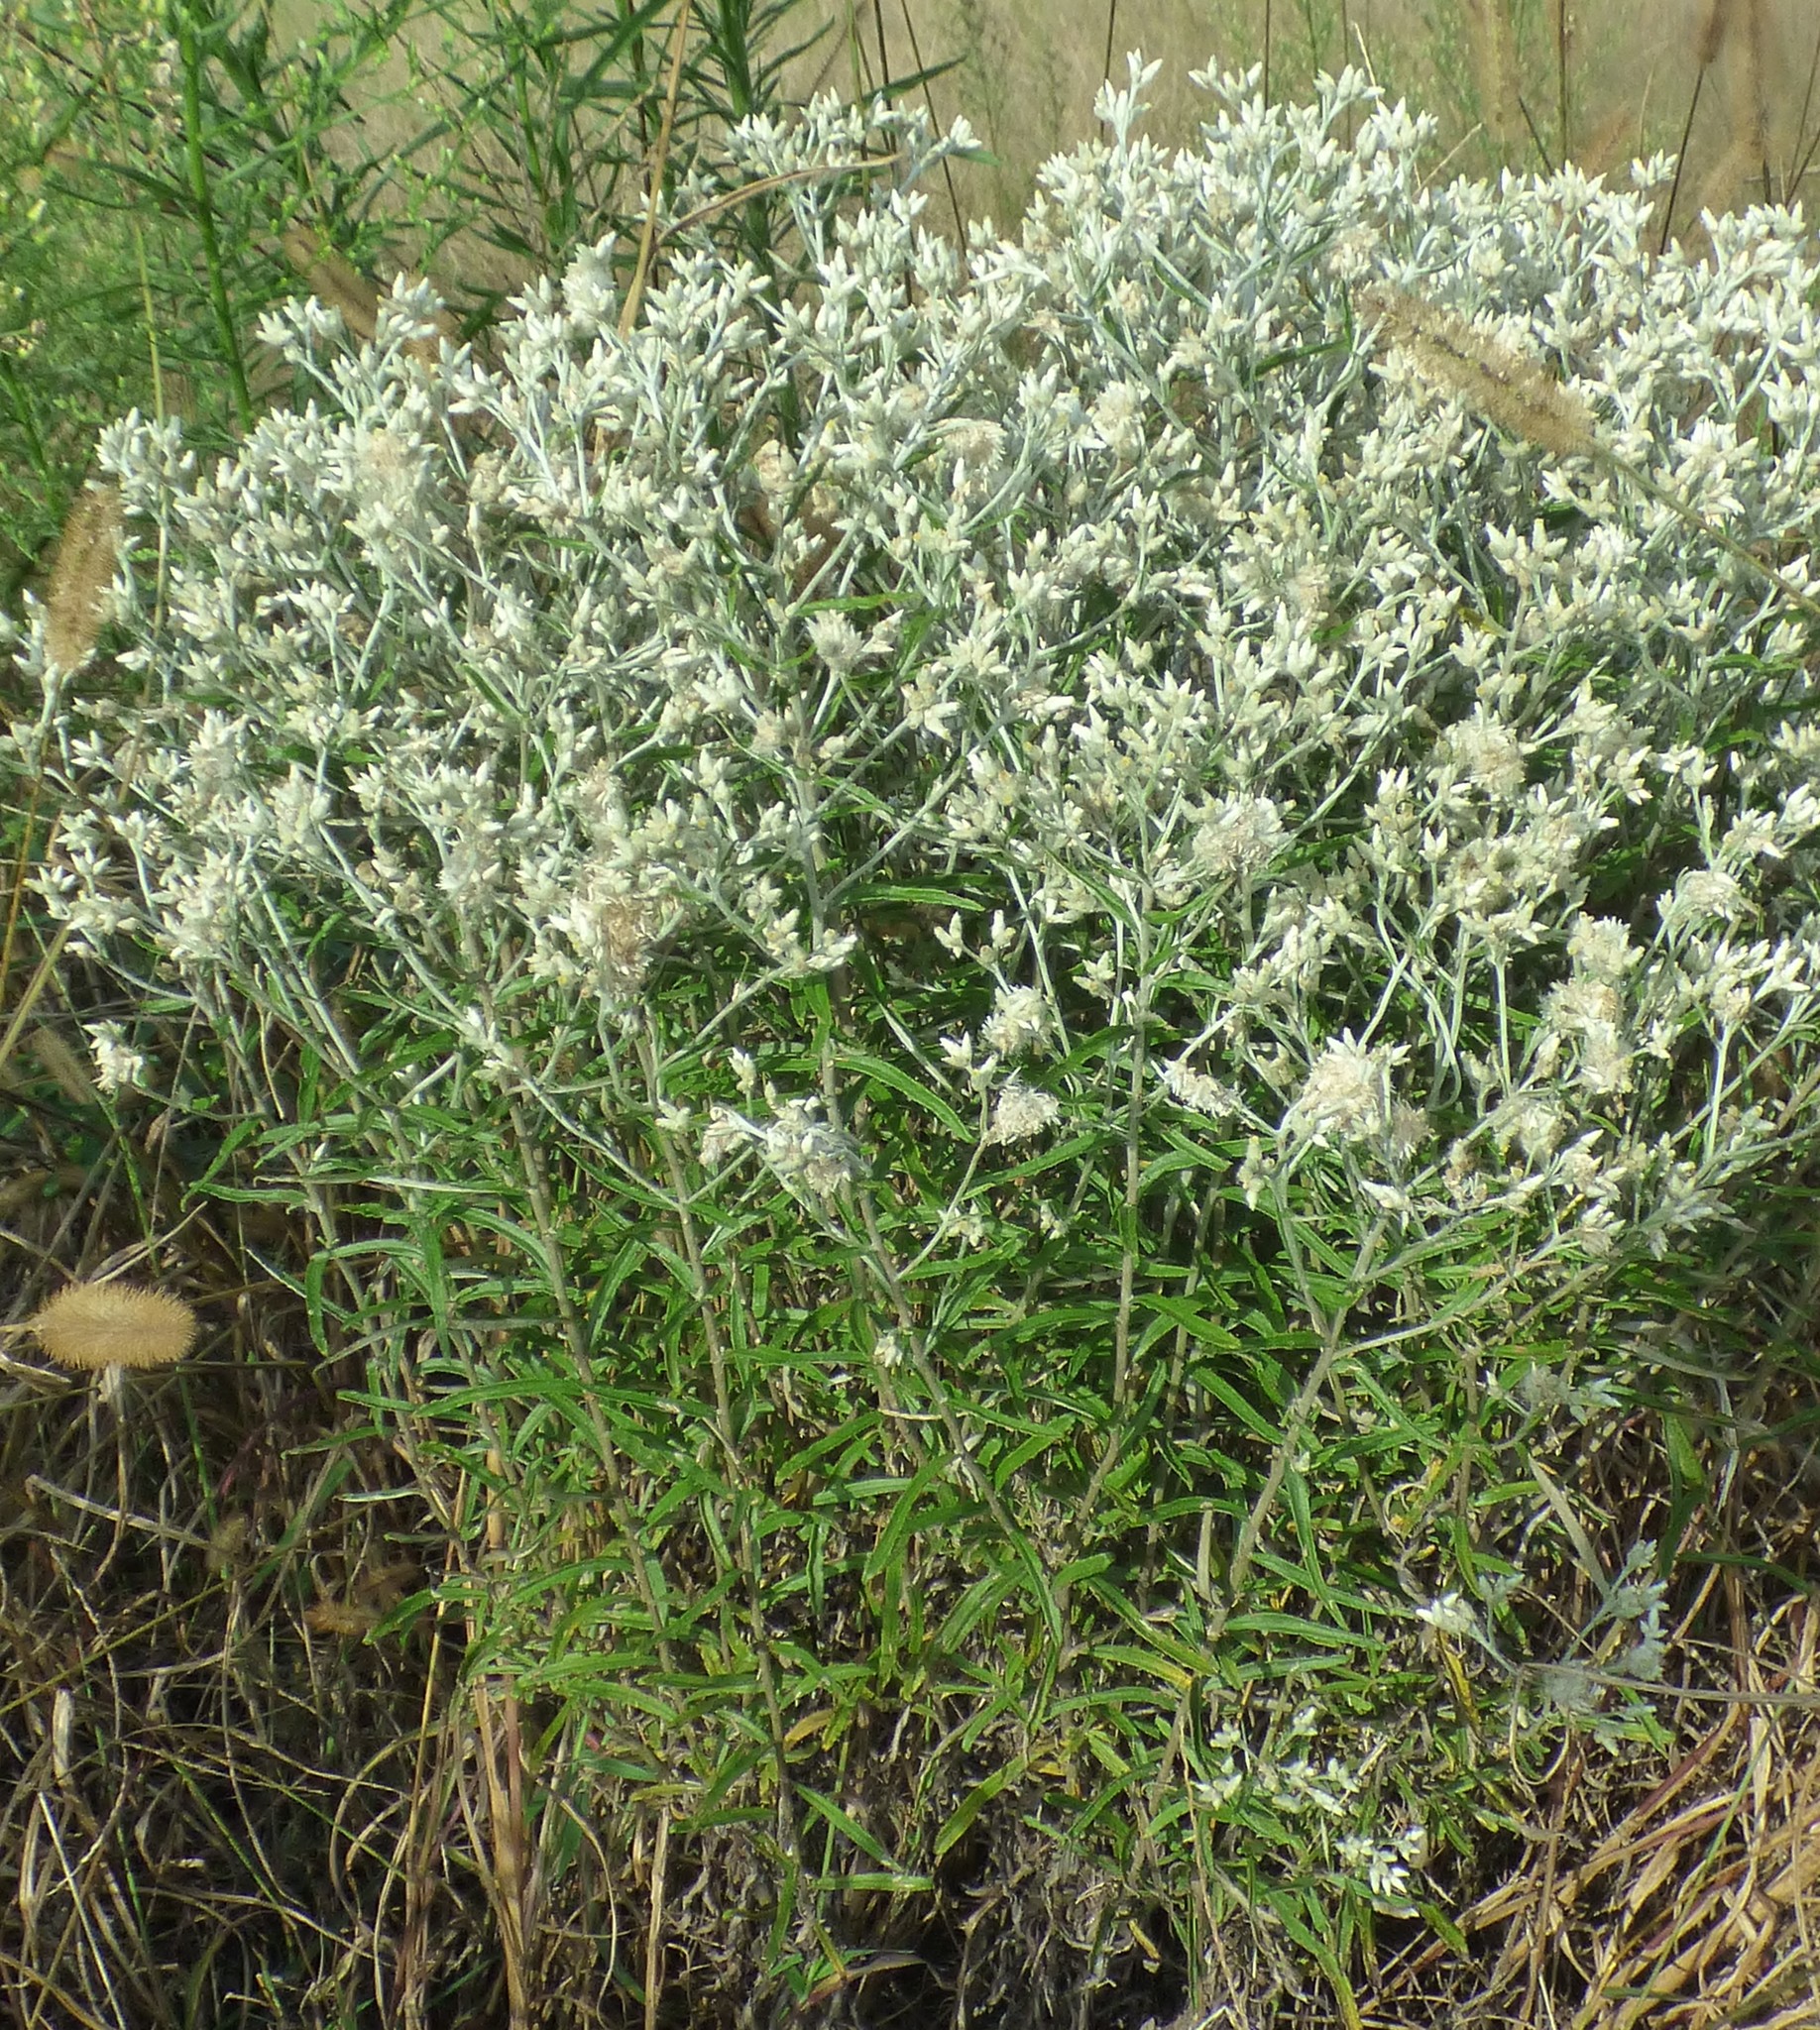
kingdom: Plantae
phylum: Tracheophyta
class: Magnoliopsida
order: Asterales
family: Asteraceae
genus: Pseudognaphalium
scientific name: Pseudognaphalium obtusifolium
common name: Eastern rabbit-tobacco
